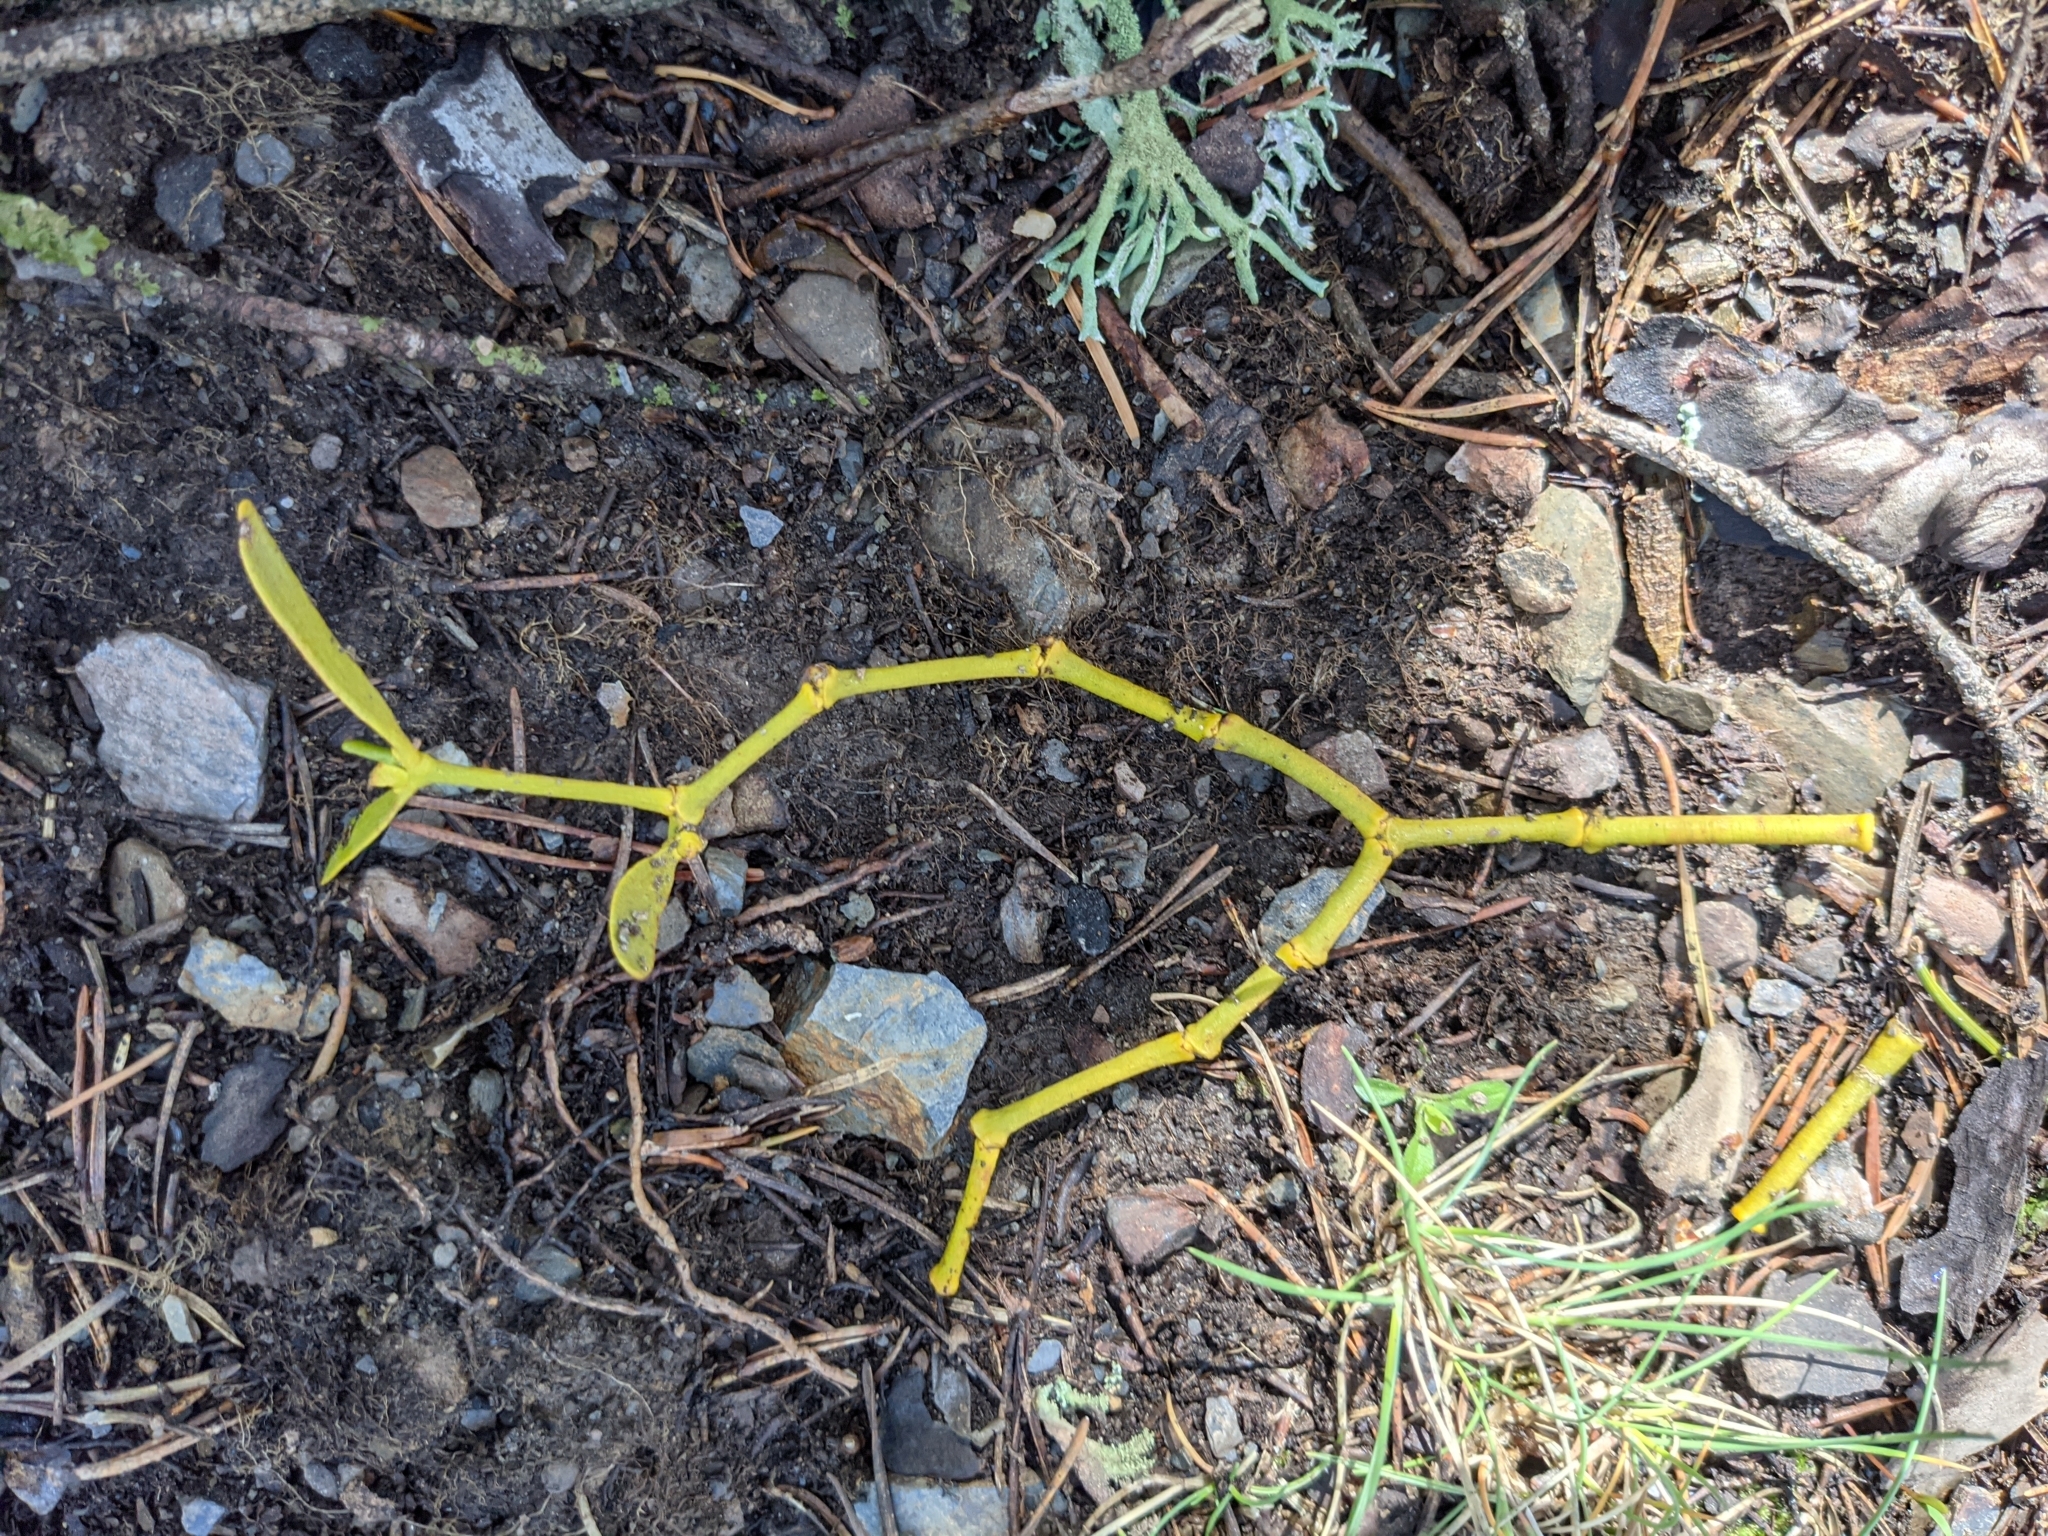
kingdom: Plantae
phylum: Tracheophyta
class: Magnoliopsida
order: Santalales
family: Viscaceae
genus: Viscum
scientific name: Viscum album
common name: Mistletoe
